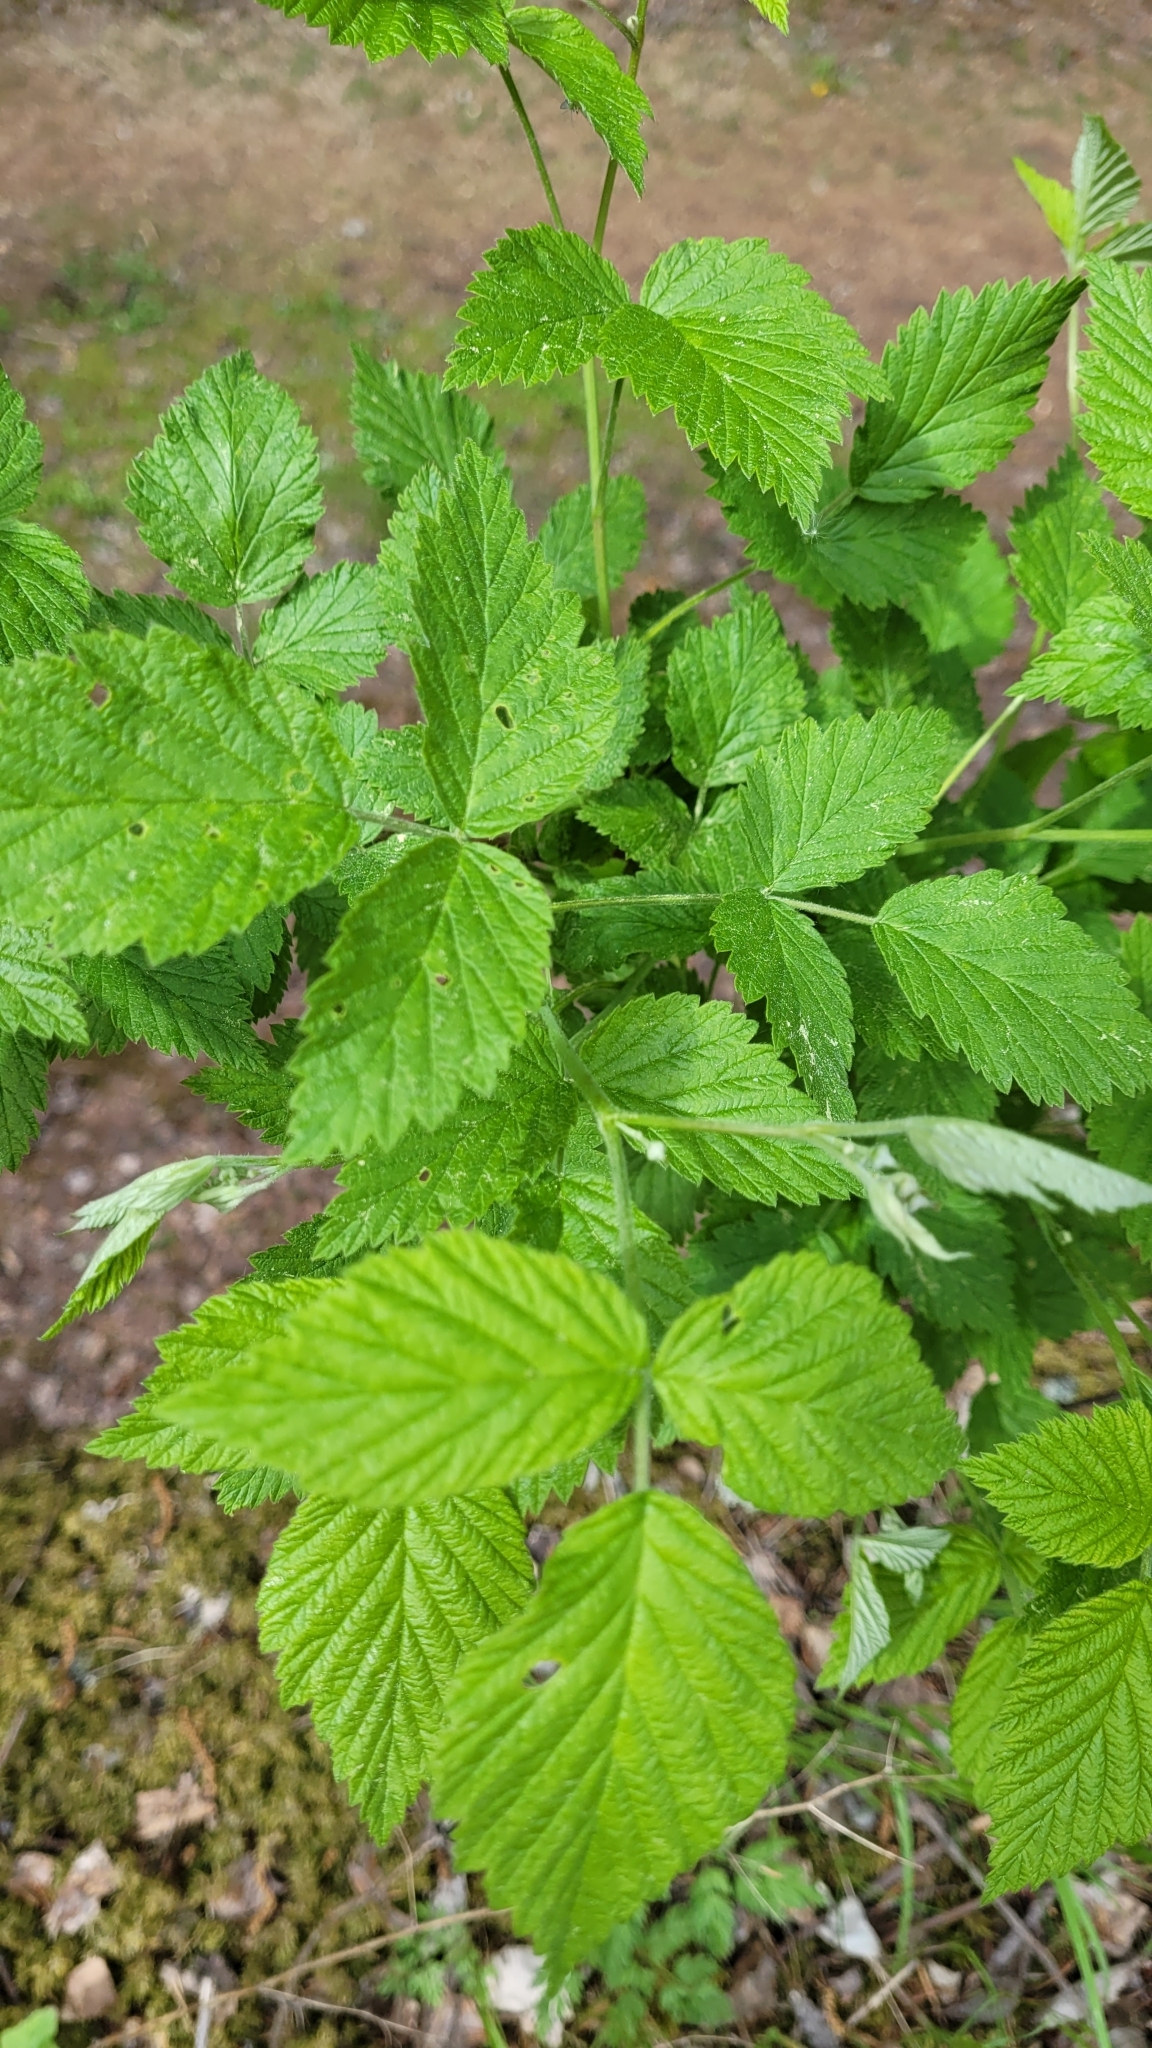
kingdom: Plantae
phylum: Tracheophyta
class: Magnoliopsida
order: Rosales
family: Rosaceae
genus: Rubus
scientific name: Rubus idaeus
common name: Raspberry
